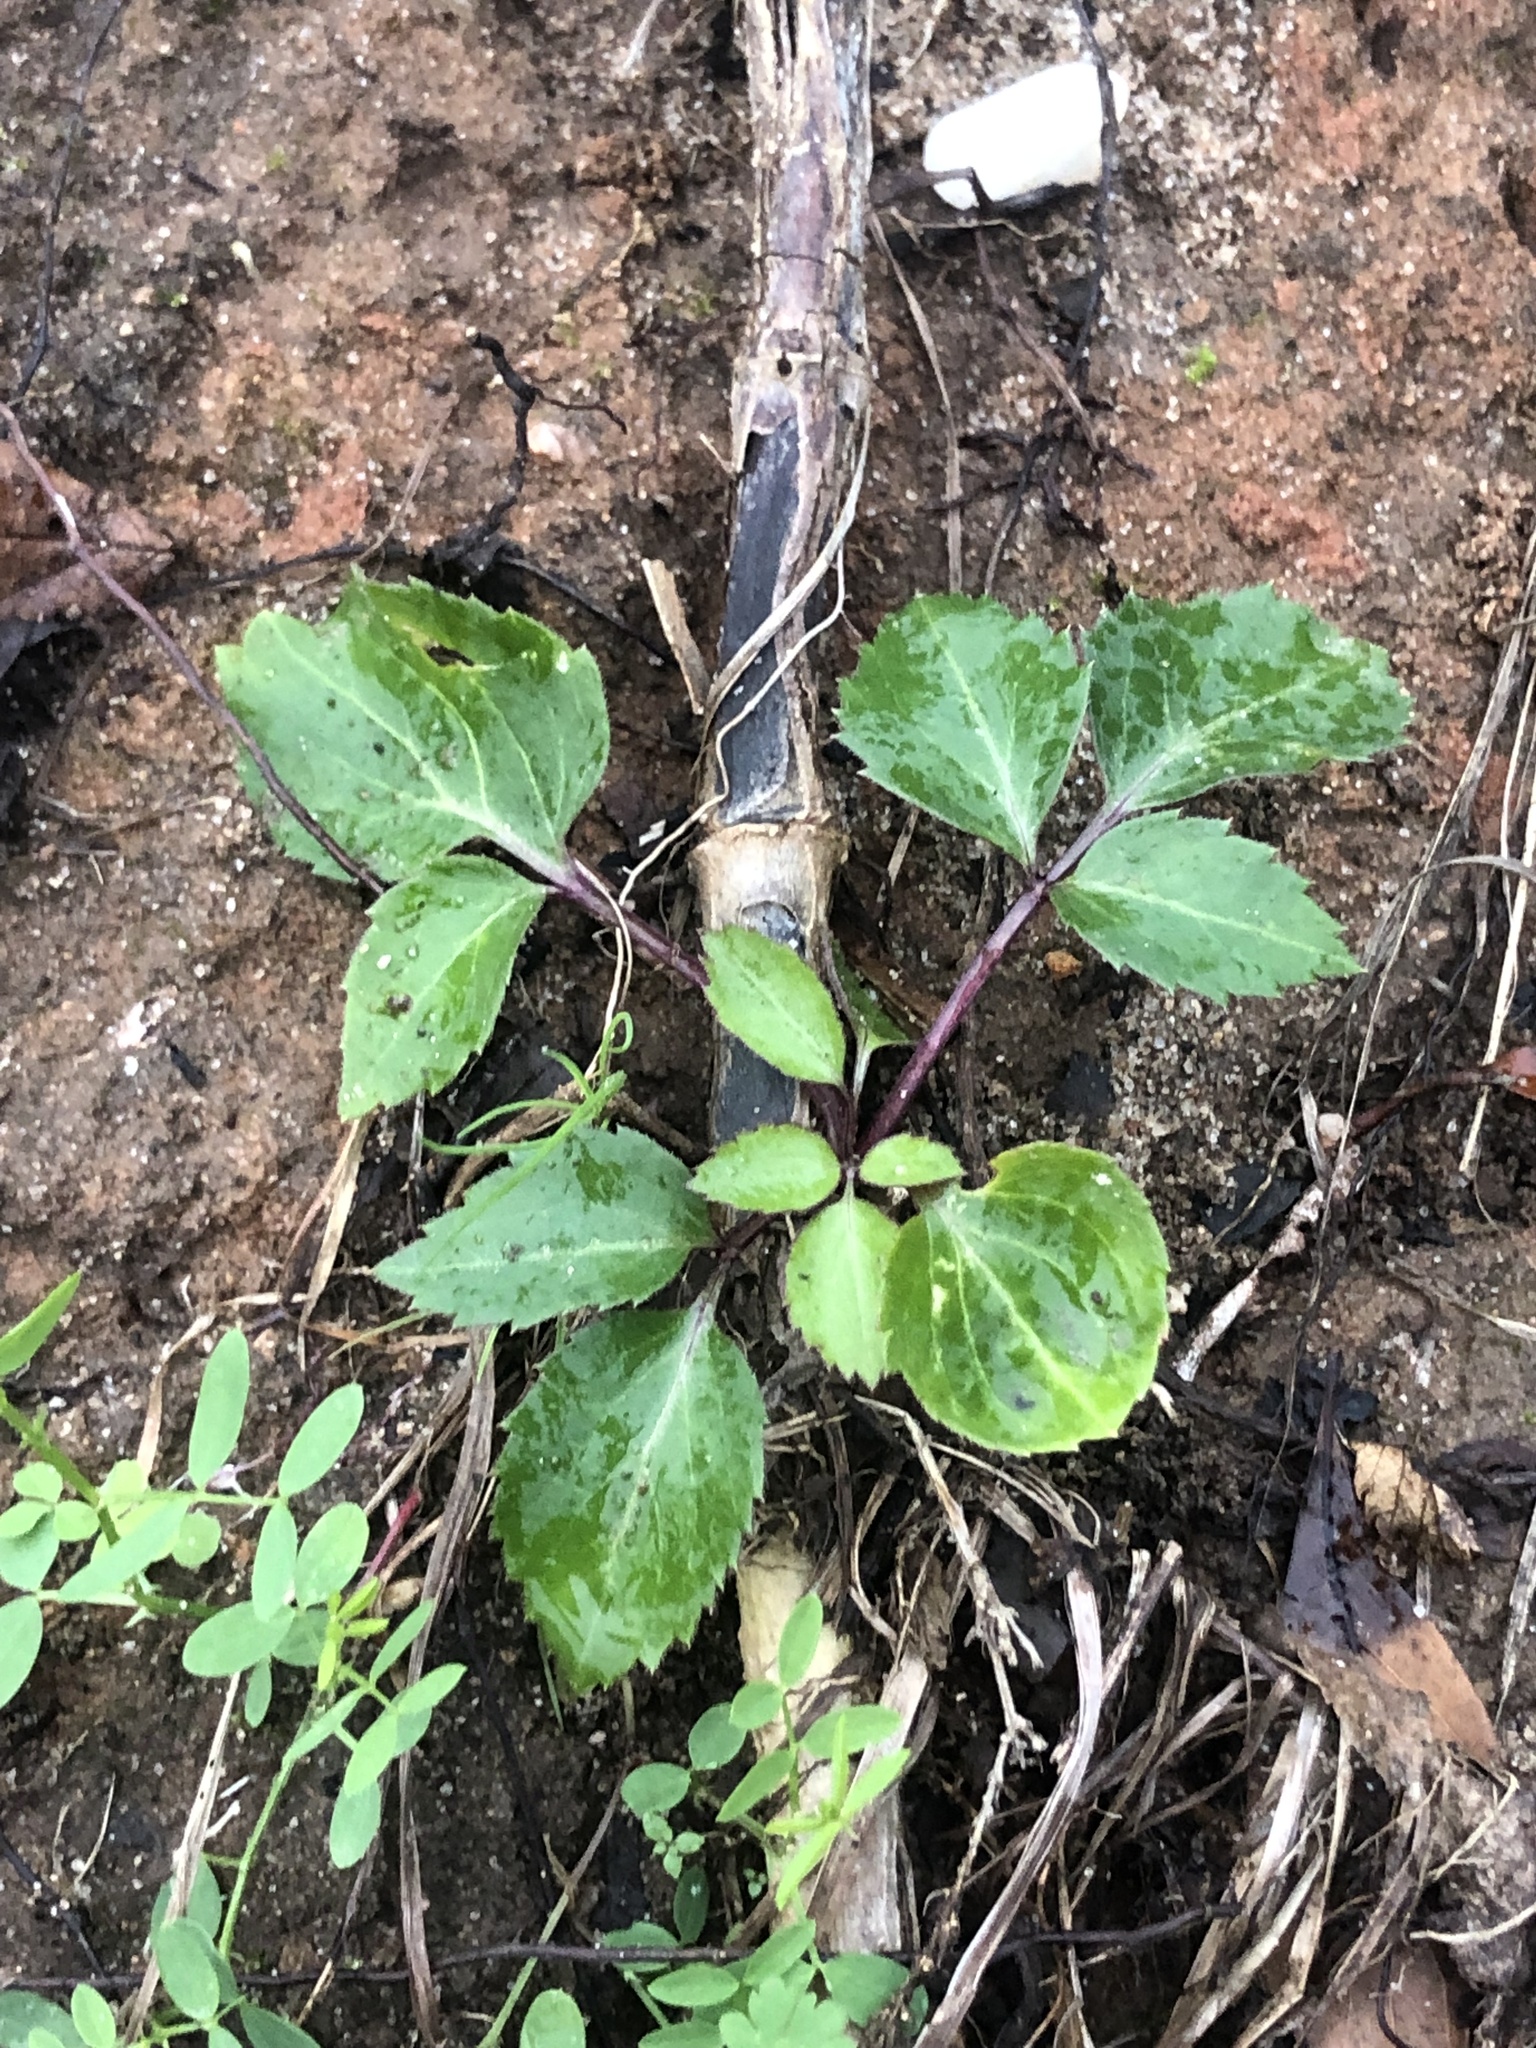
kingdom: Plantae
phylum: Tracheophyta
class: Magnoliopsida
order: Dipsacales
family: Viburnaceae
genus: Sambucus
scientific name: Sambucus canadensis
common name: American elder
